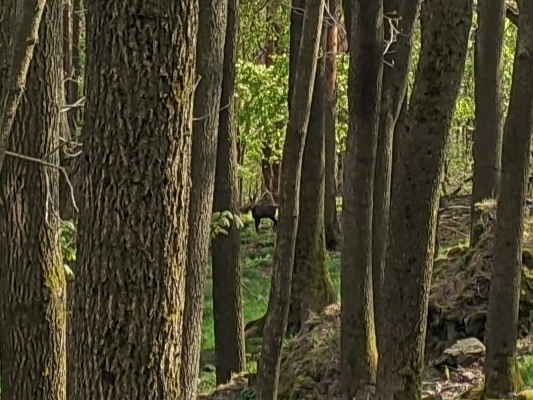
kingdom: Animalia
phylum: Chordata
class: Mammalia
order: Artiodactyla
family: Bovidae
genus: Rupicapra
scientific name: Rupicapra rupicapra
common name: Chamois
